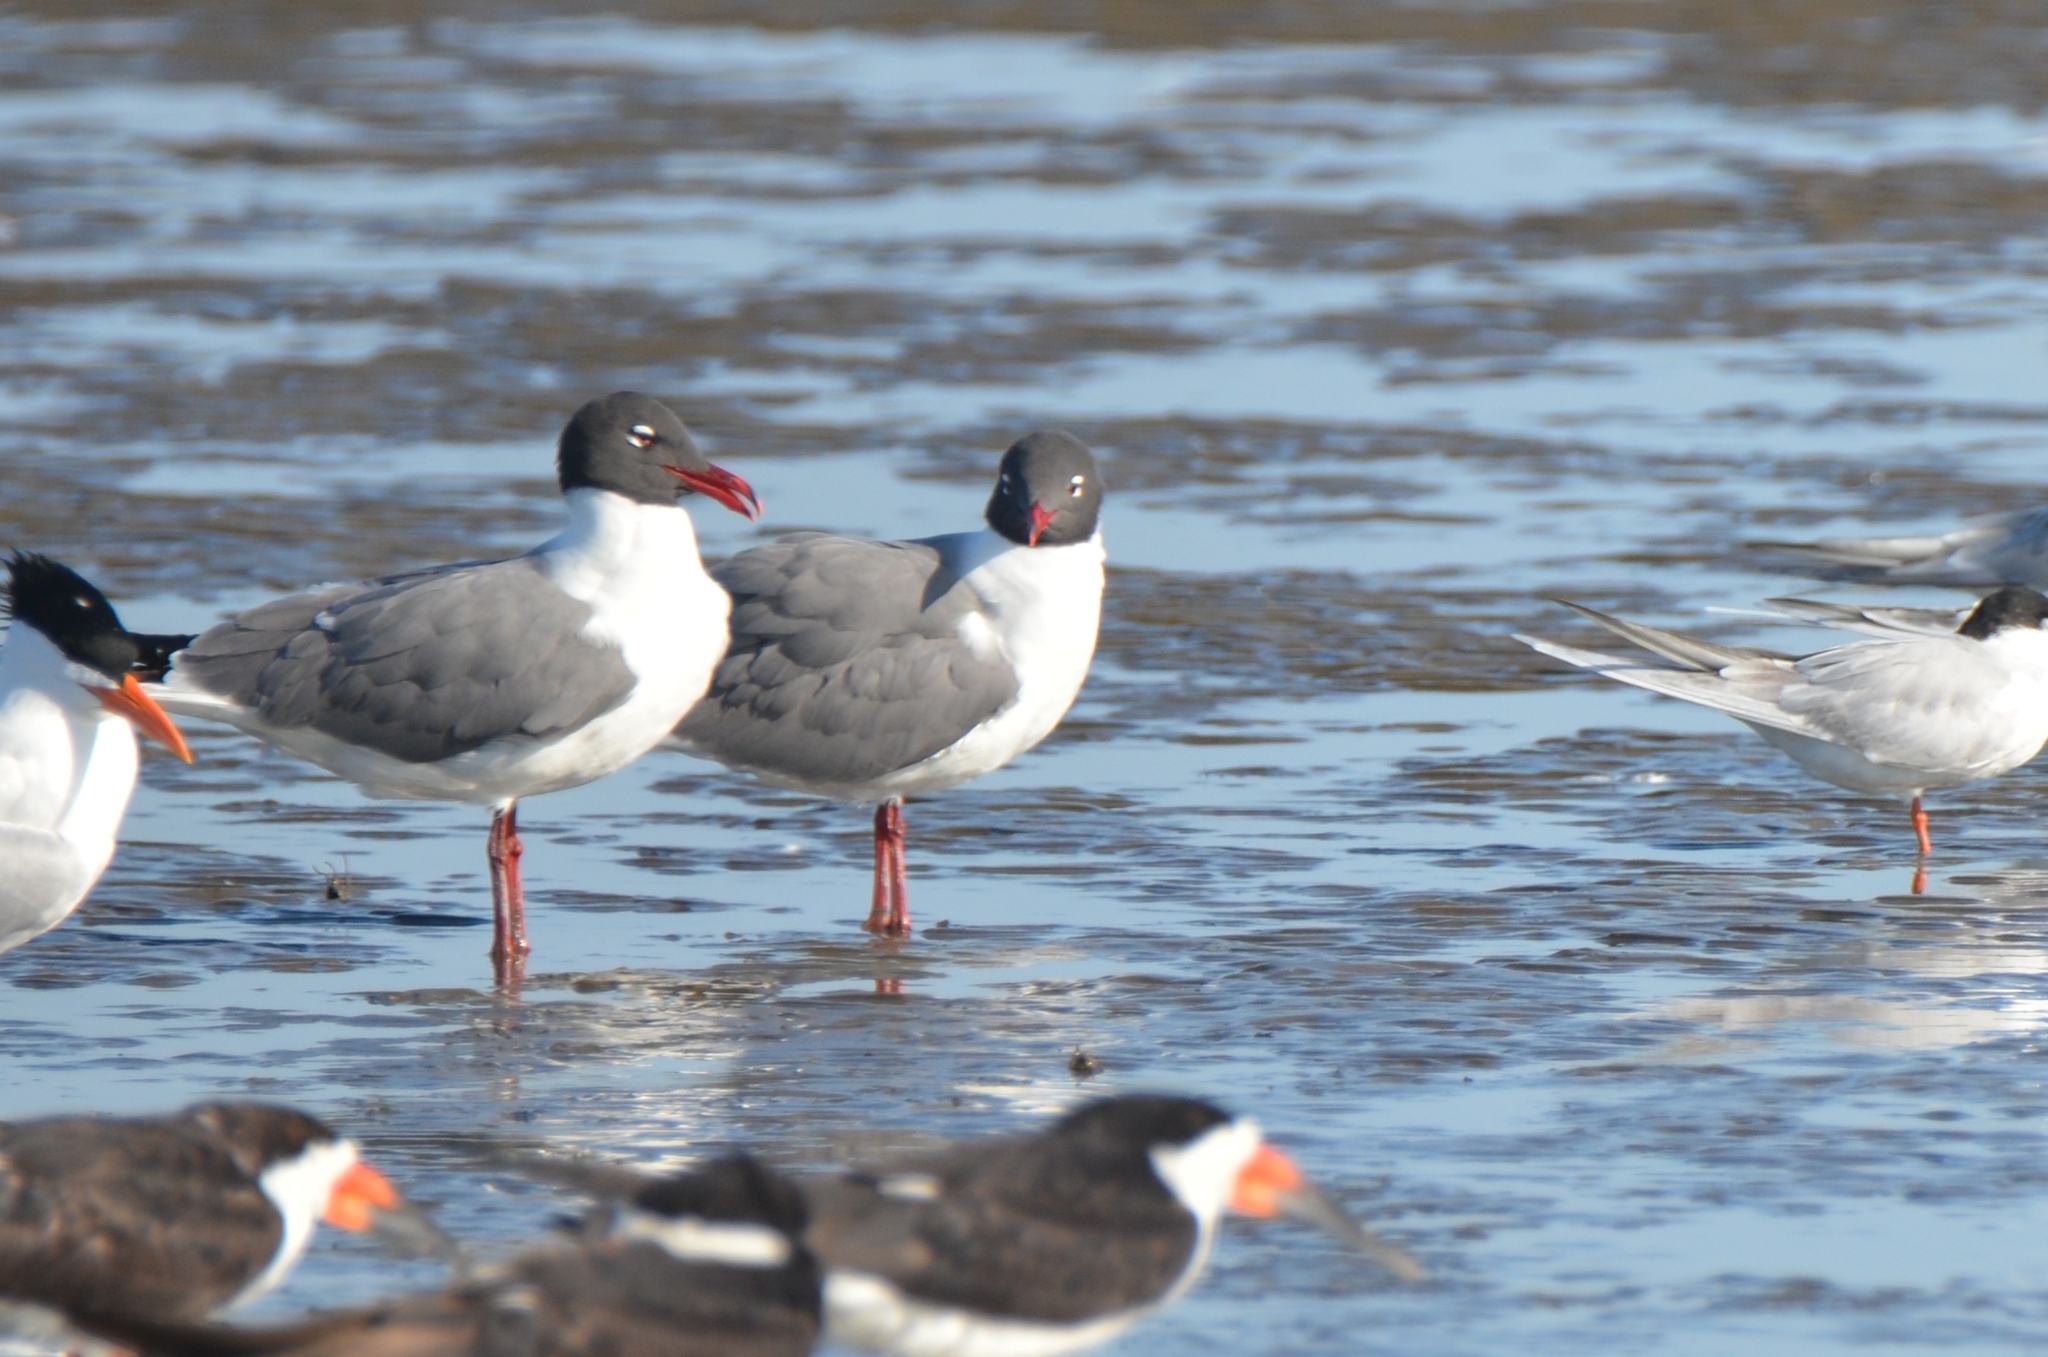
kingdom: Animalia
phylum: Chordata
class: Aves
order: Charadriiformes
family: Laridae
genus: Leucophaeus
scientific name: Leucophaeus atricilla
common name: Laughing gull
